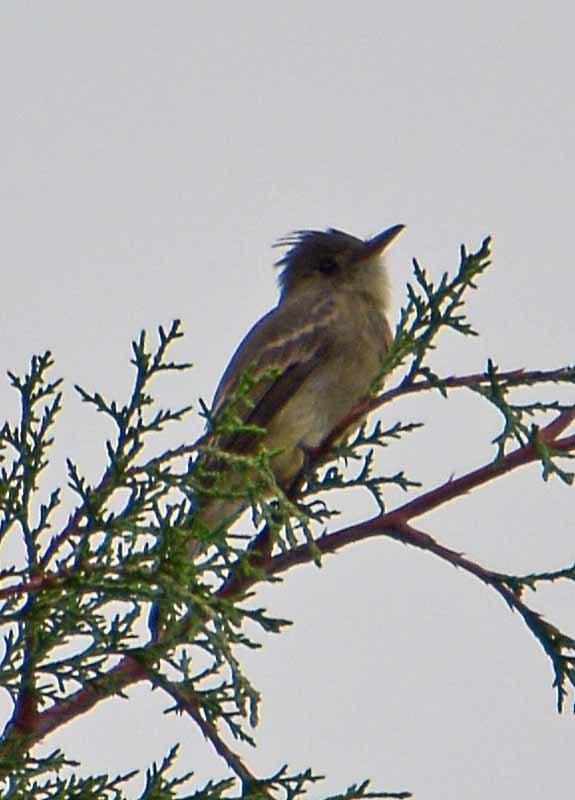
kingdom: Animalia
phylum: Chordata
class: Aves
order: Passeriformes
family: Tyrannidae
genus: Contopus
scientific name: Contopus pertinax
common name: Greater pewee
